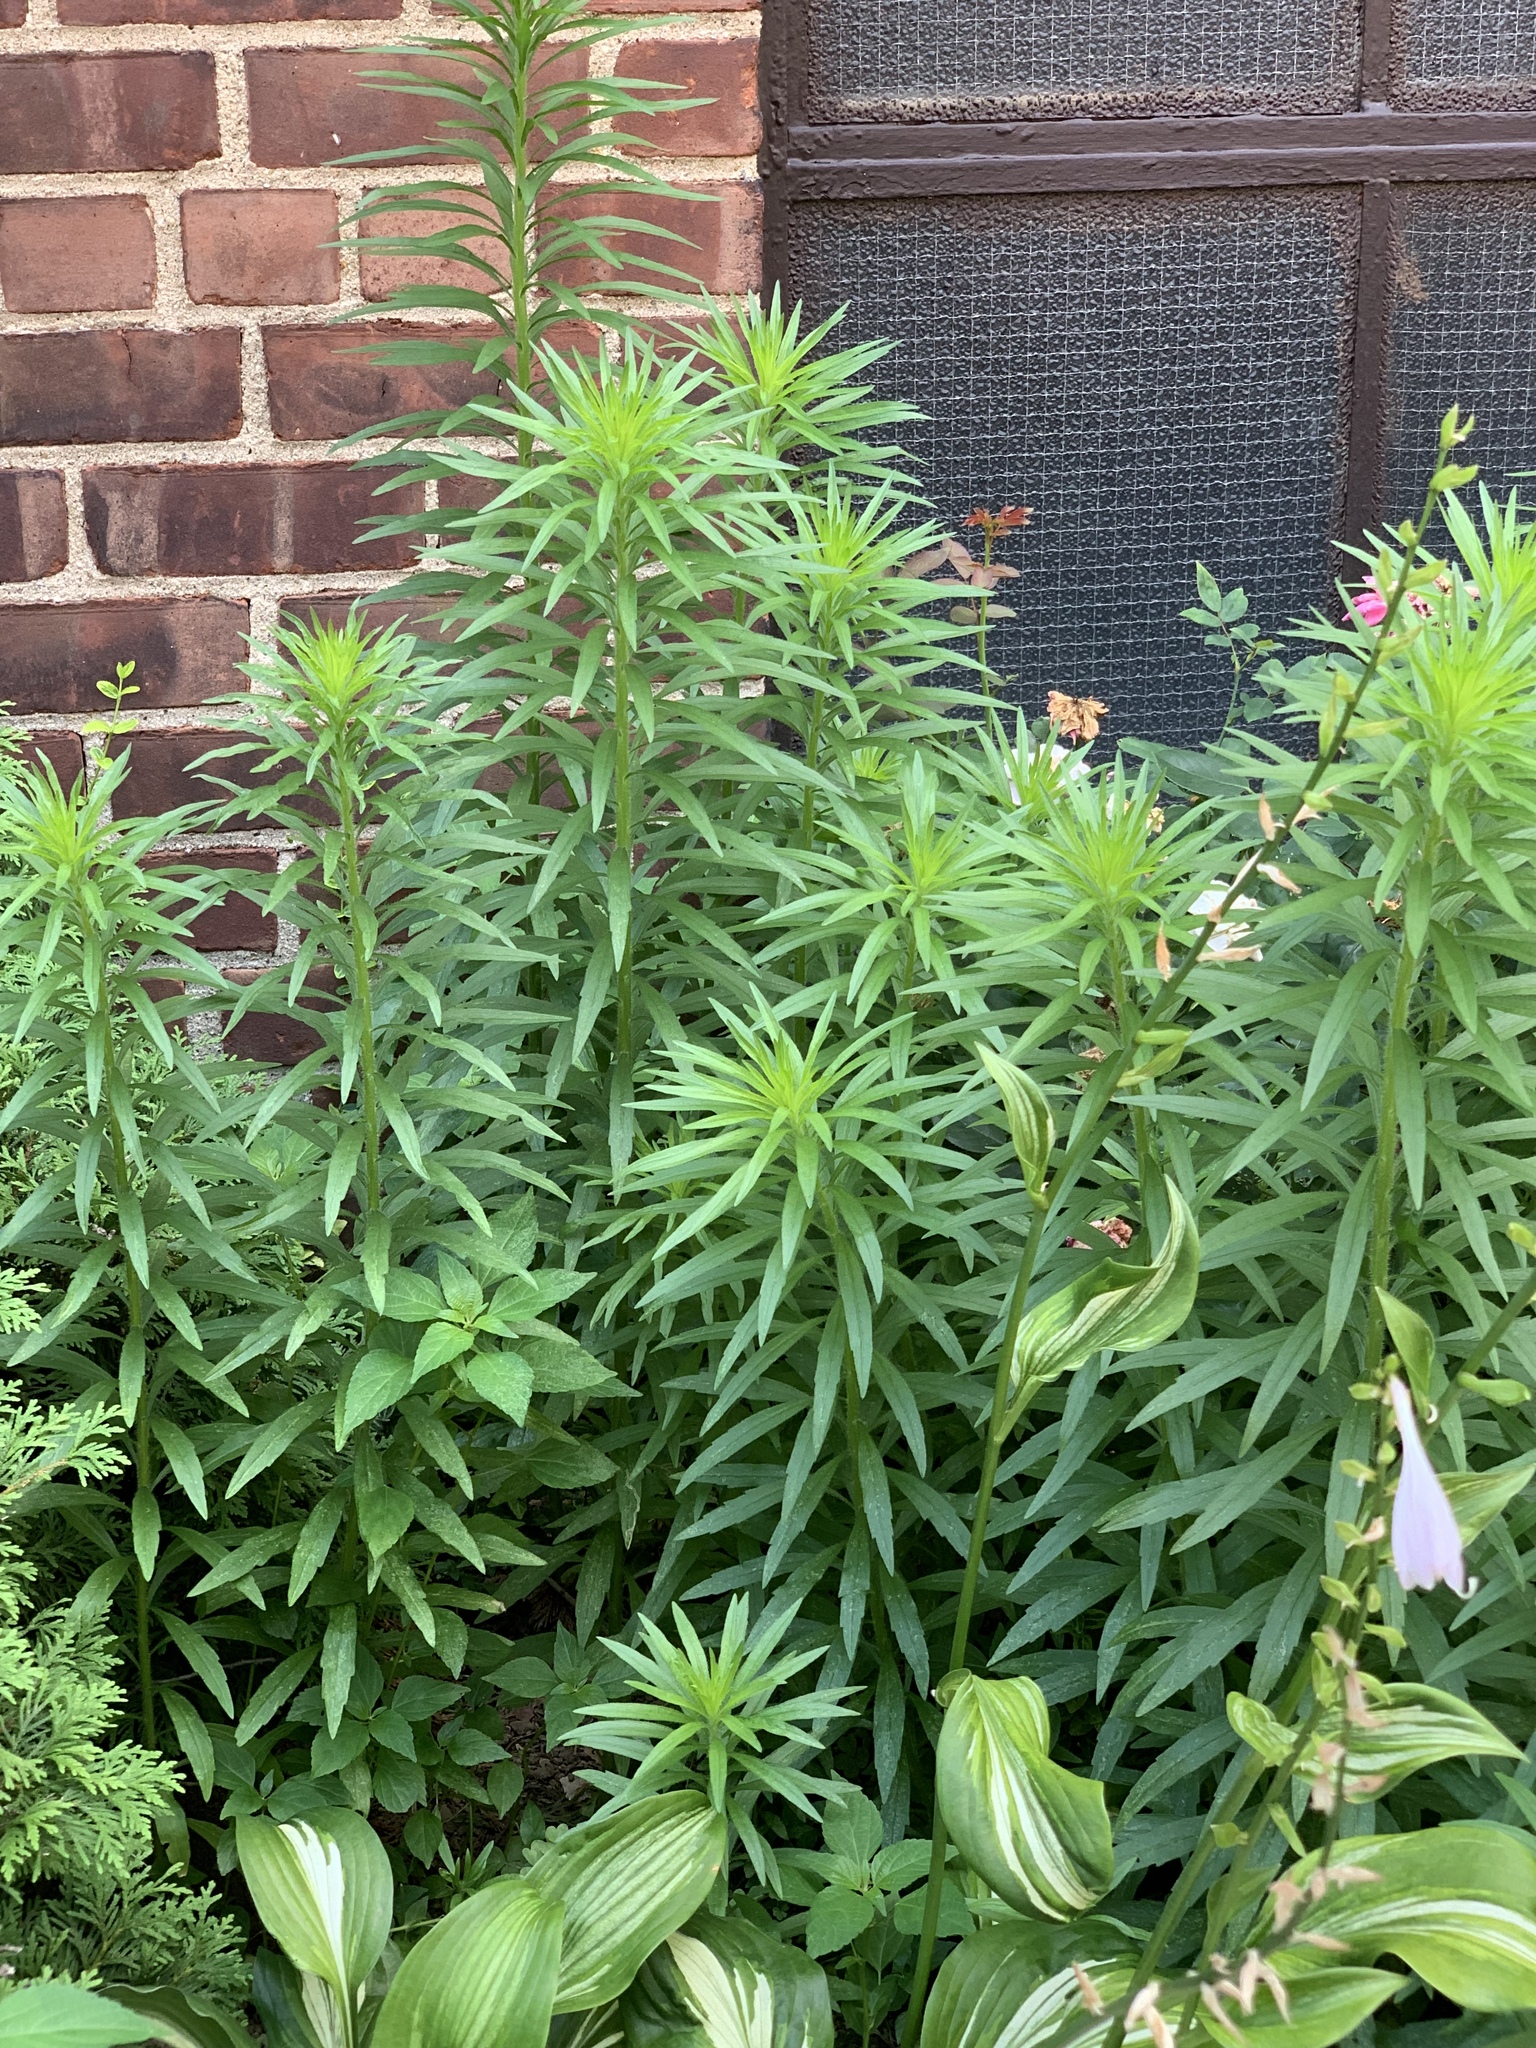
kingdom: Plantae
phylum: Tracheophyta
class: Magnoliopsida
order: Asterales
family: Asteraceae
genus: Erigeron
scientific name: Erigeron canadensis
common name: Canadian fleabane
